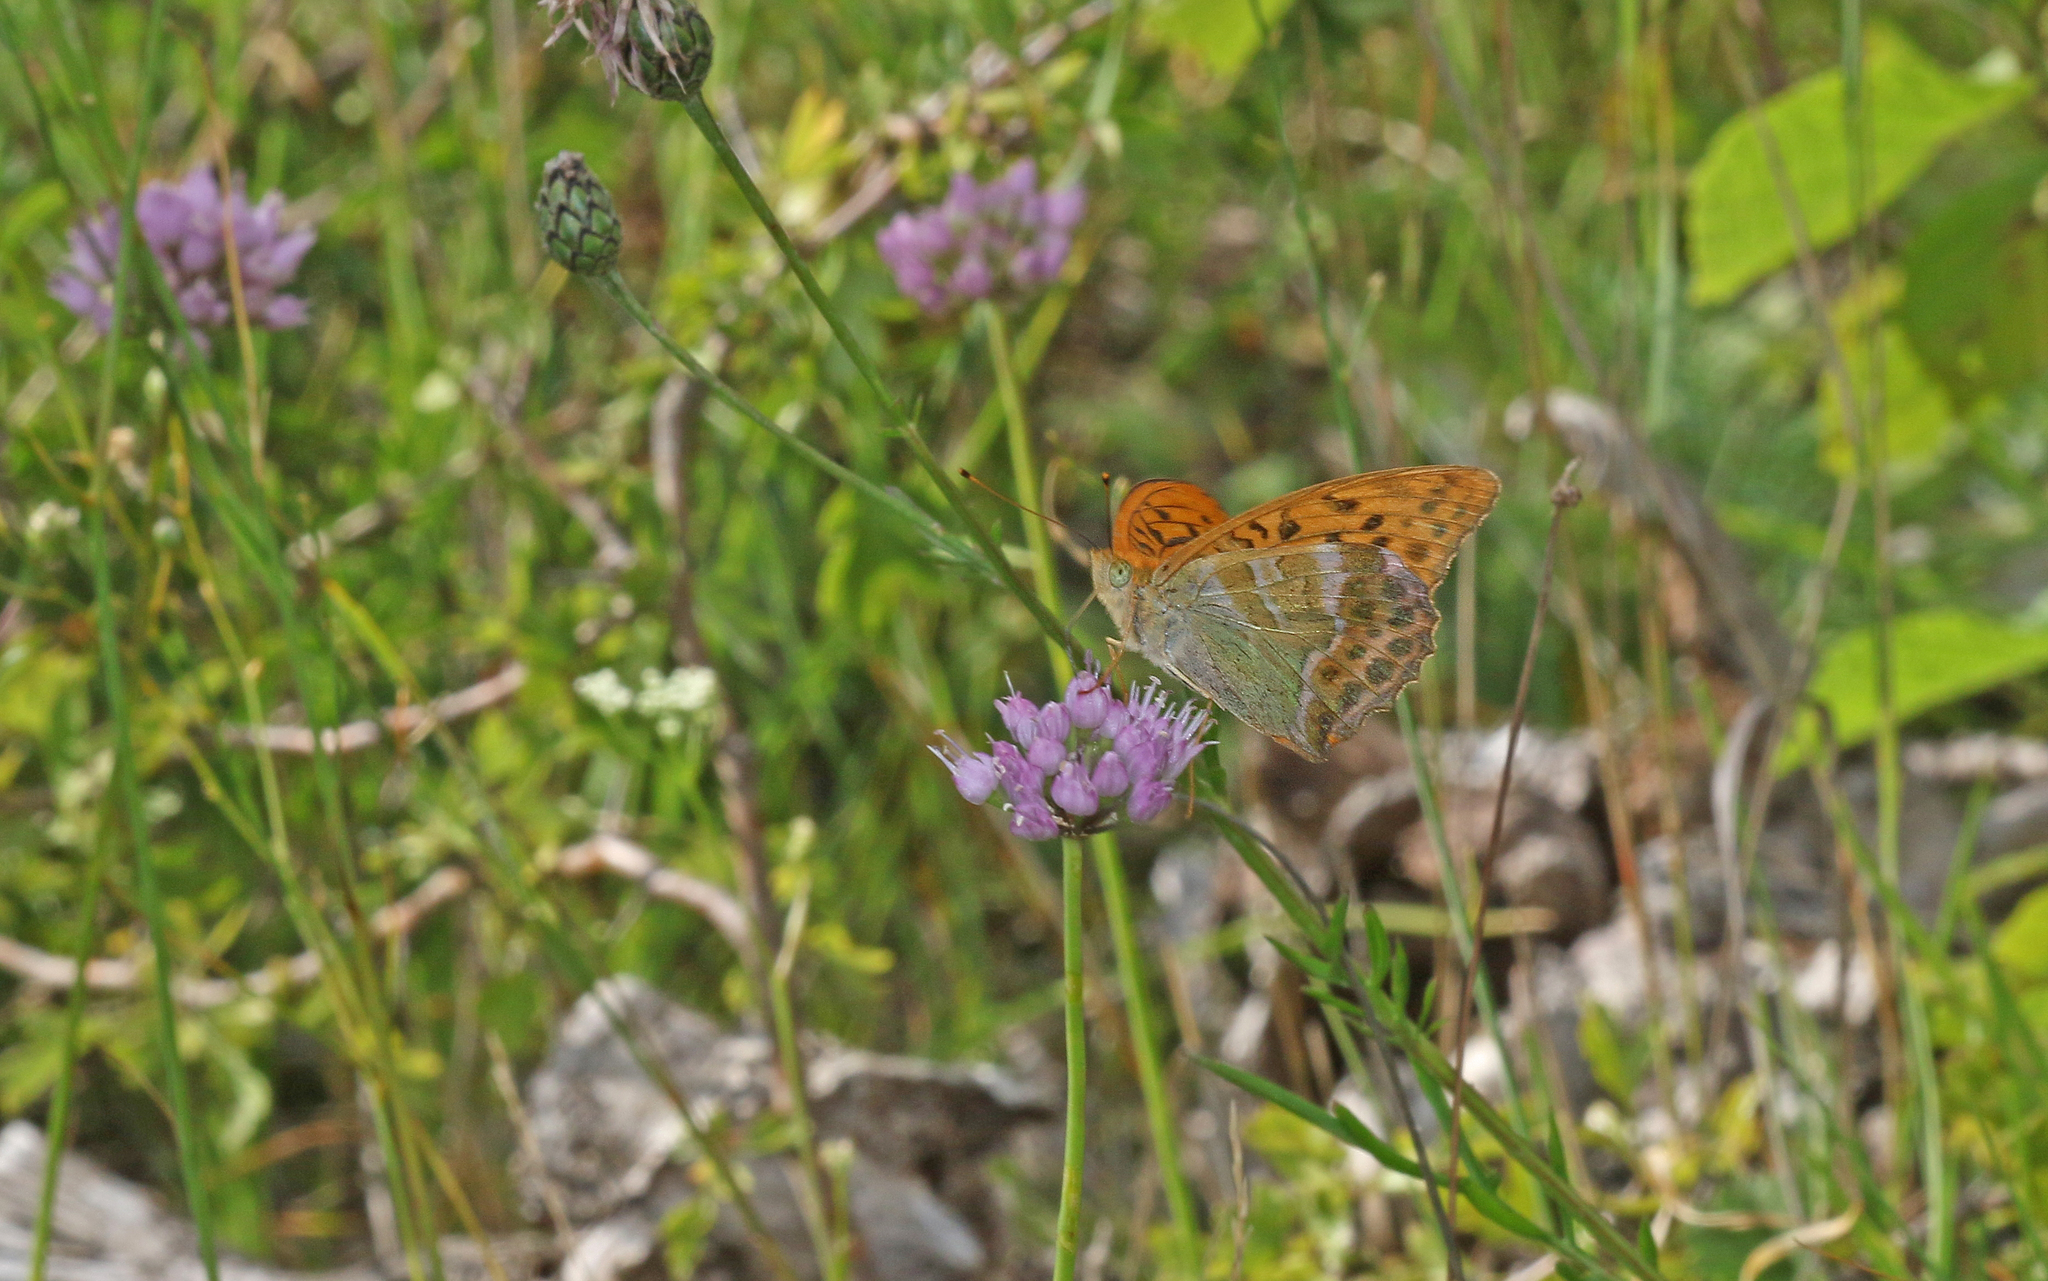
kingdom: Animalia
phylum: Arthropoda
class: Insecta
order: Lepidoptera
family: Nymphalidae
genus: Argynnis
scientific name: Argynnis paphia
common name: Silver-washed fritillary
